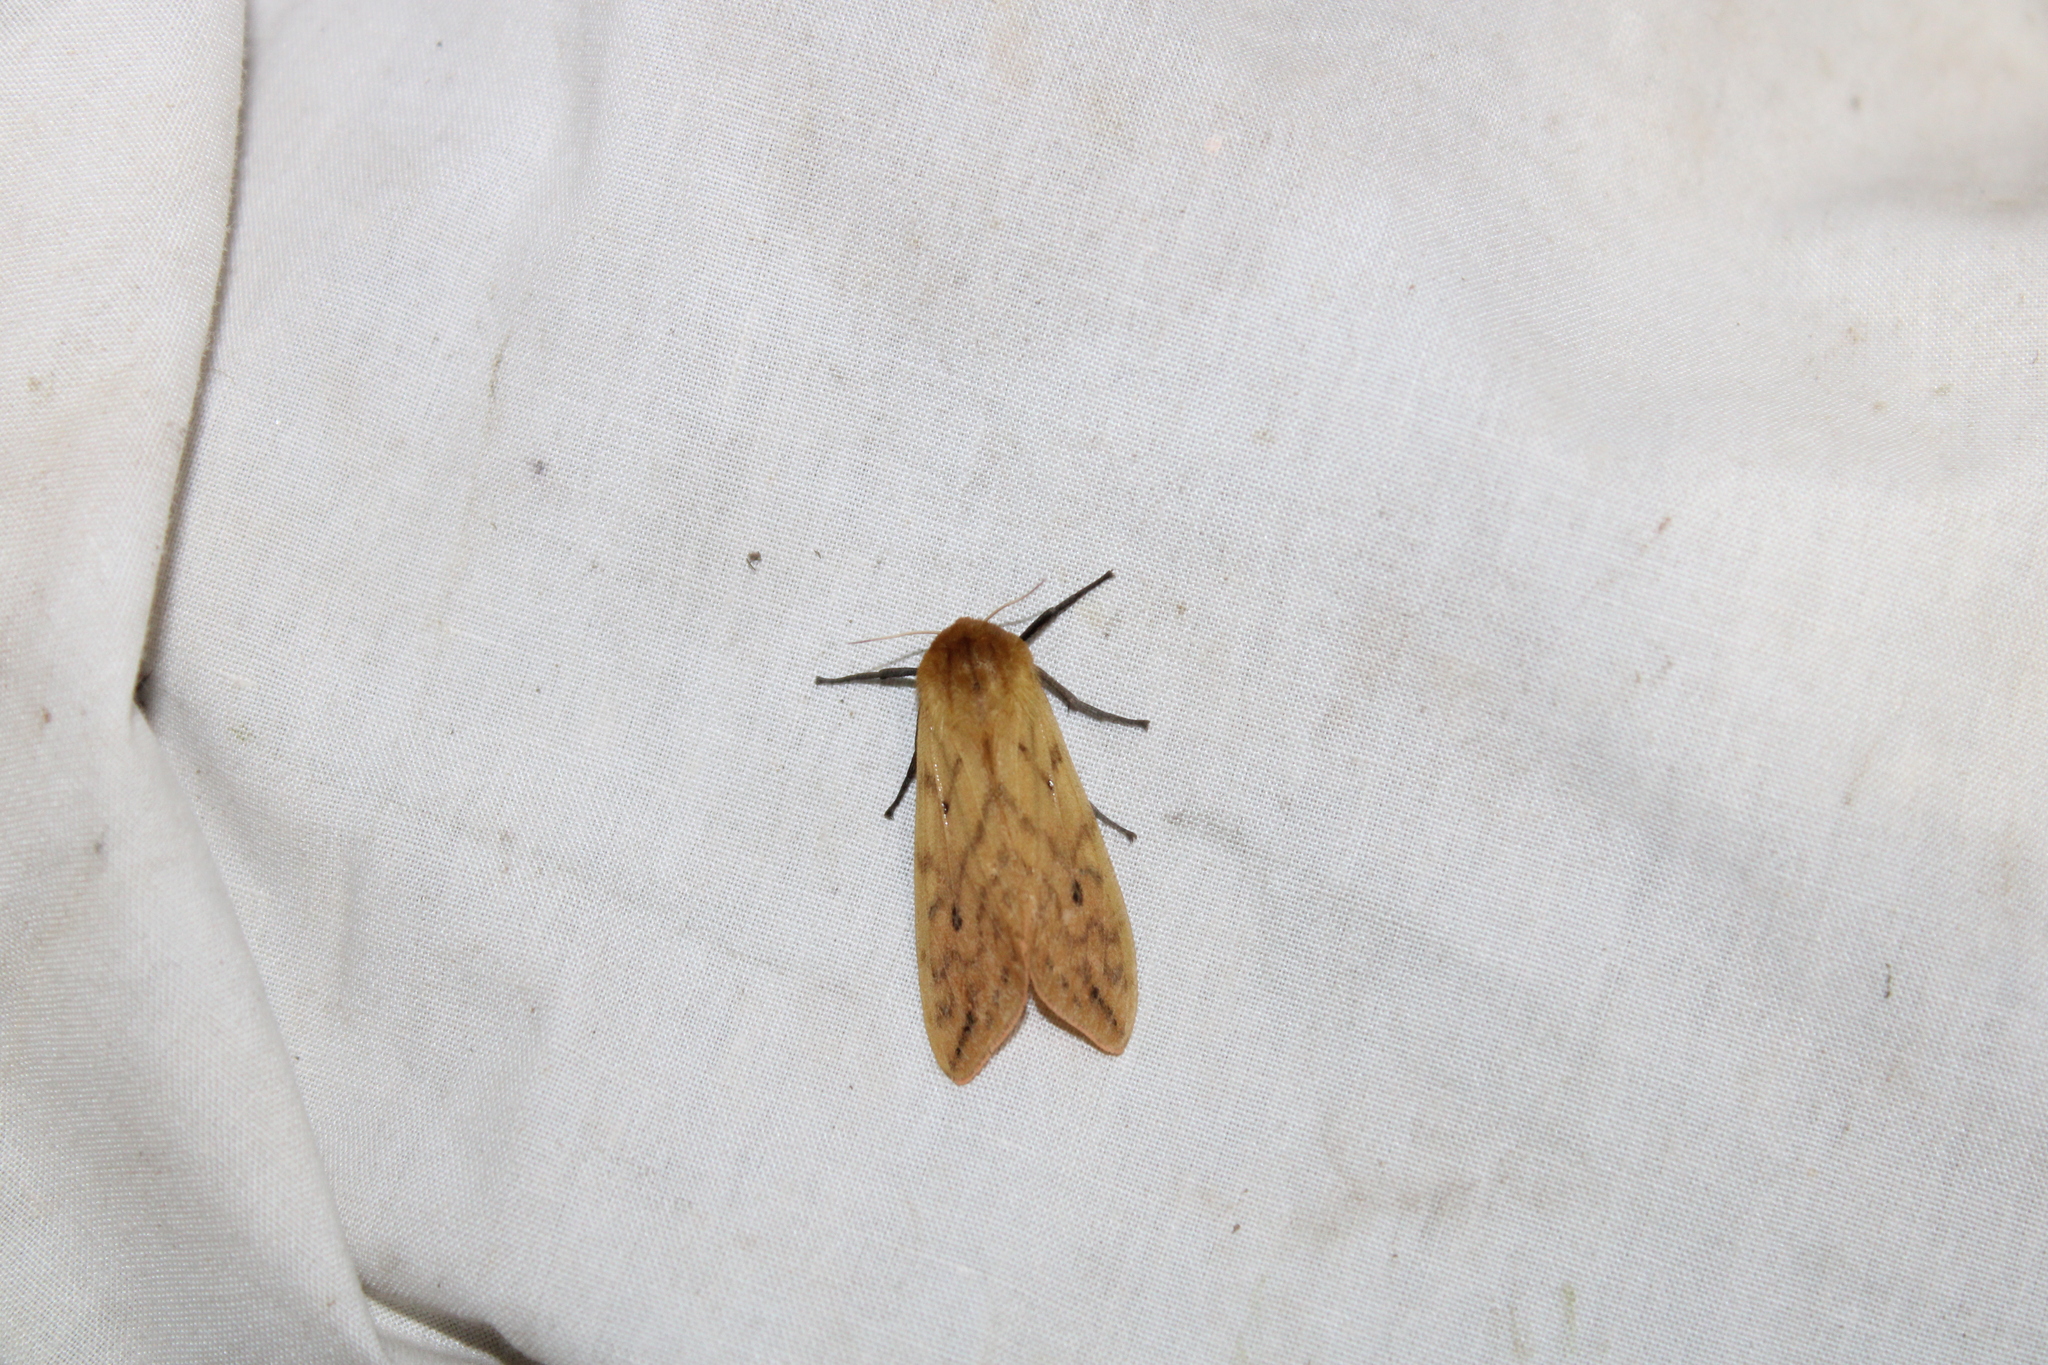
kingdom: Animalia
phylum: Arthropoda
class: Insecta
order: Lepidoptera
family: Erebidae
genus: Pyrrharctia
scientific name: Pyrrharctia isabella
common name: Isabella tiger moth
